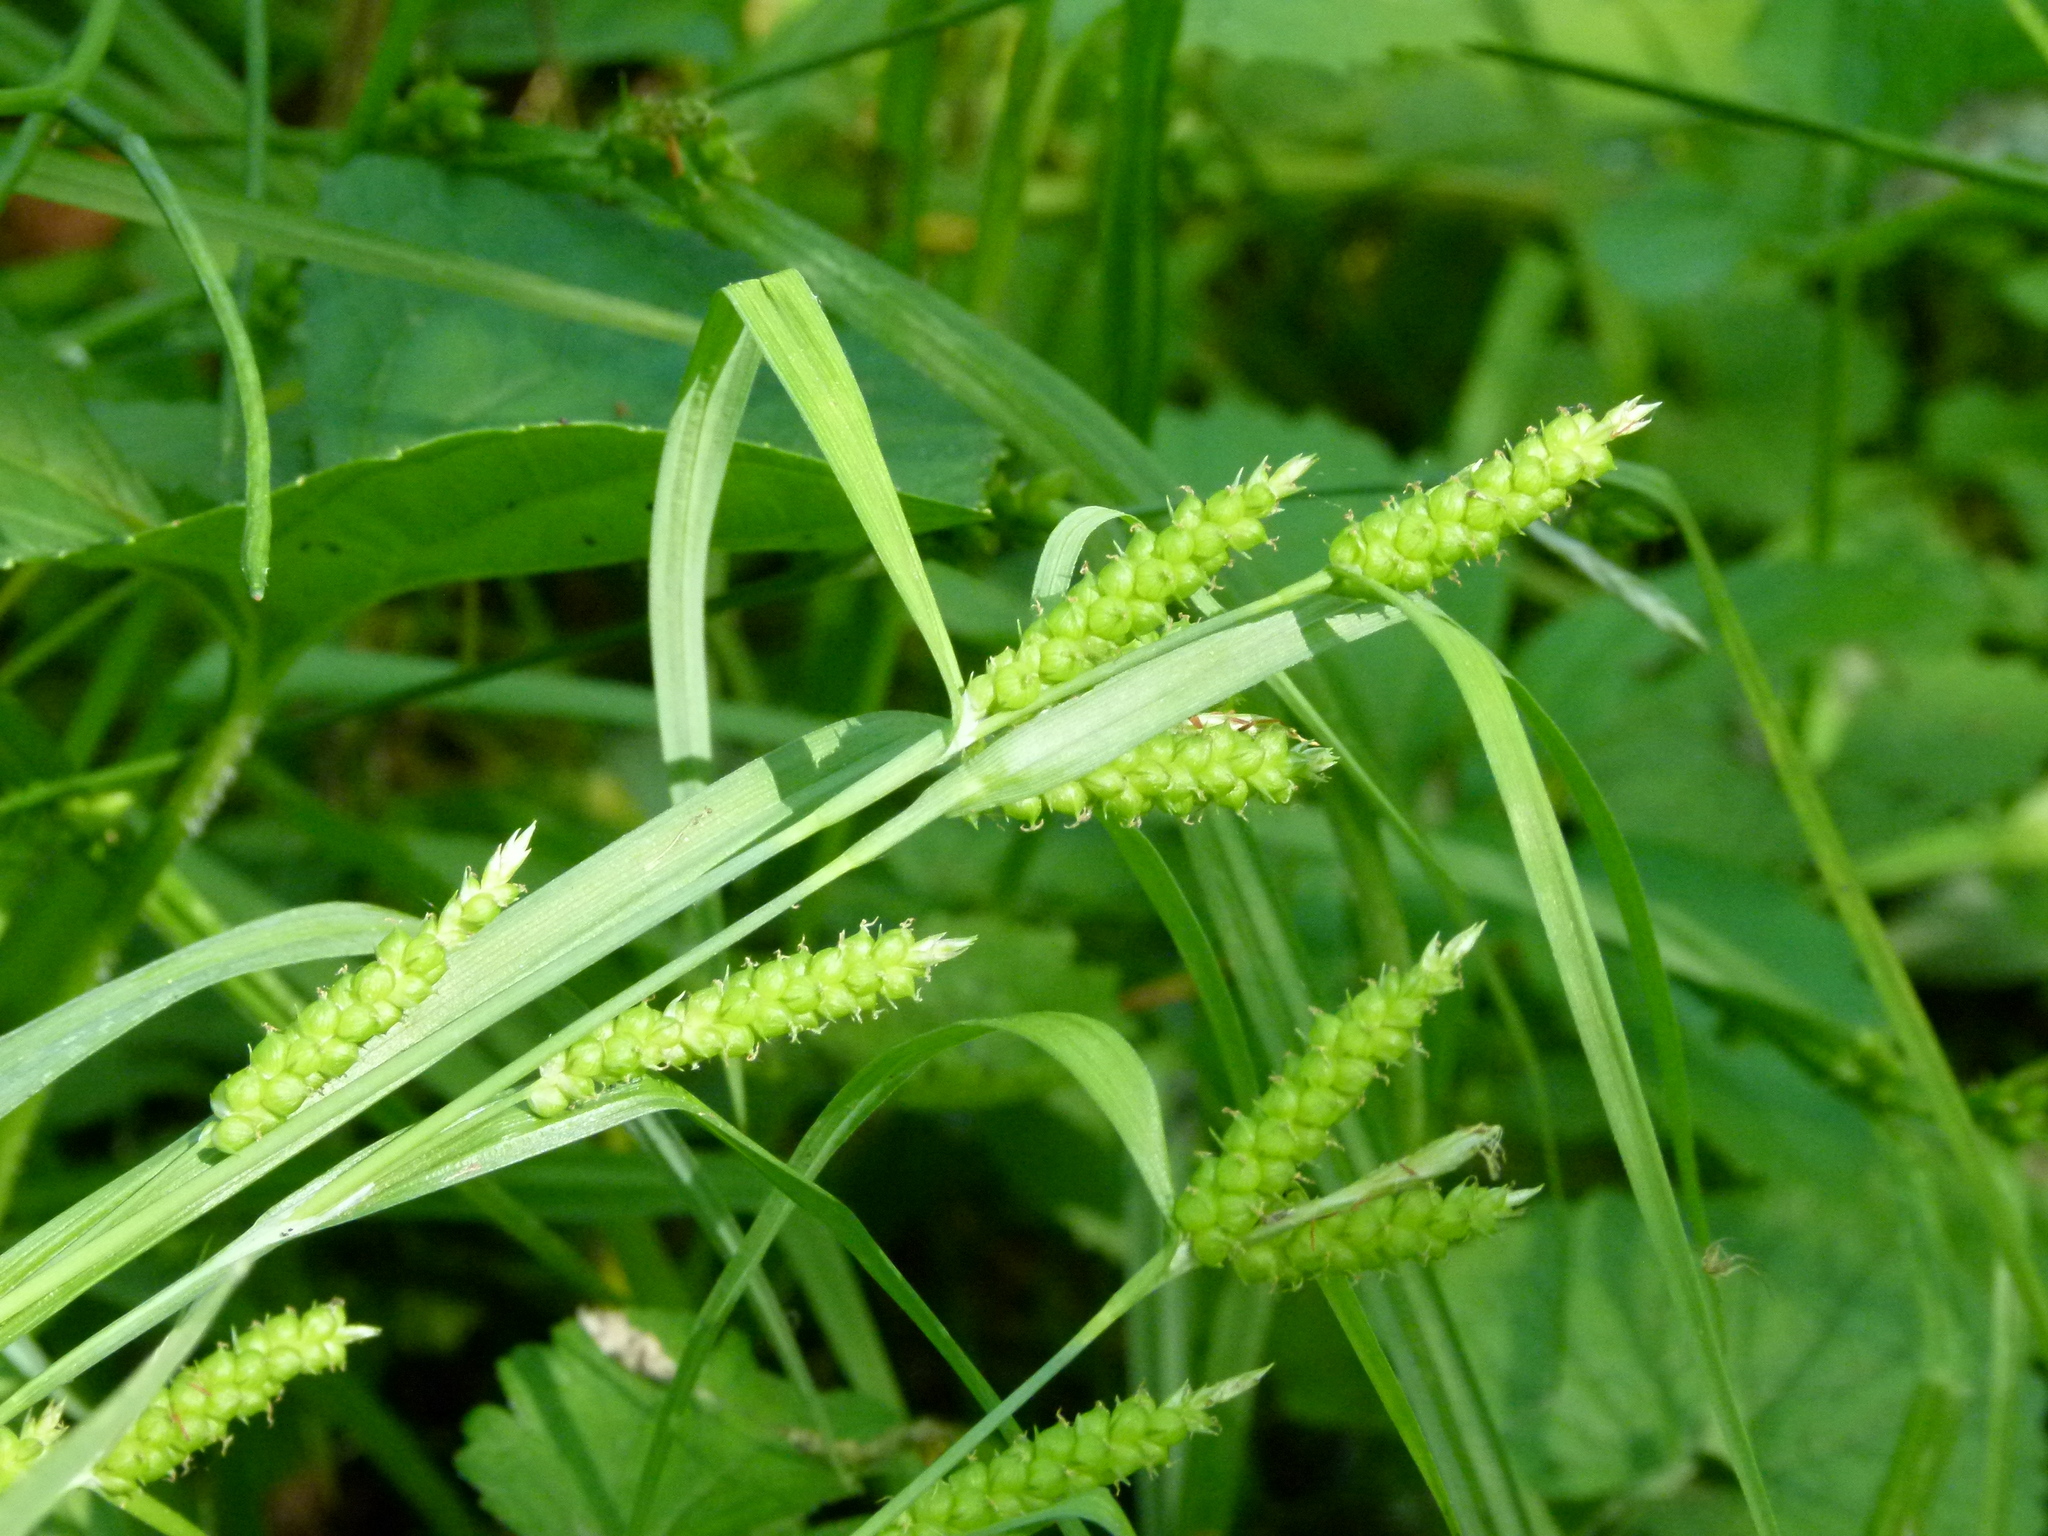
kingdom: Plantae
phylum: Tracheophyta
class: Liliopsida
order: Poales
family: Cyperaceae
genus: Carex
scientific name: Carex granularis
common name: Granular sedge
